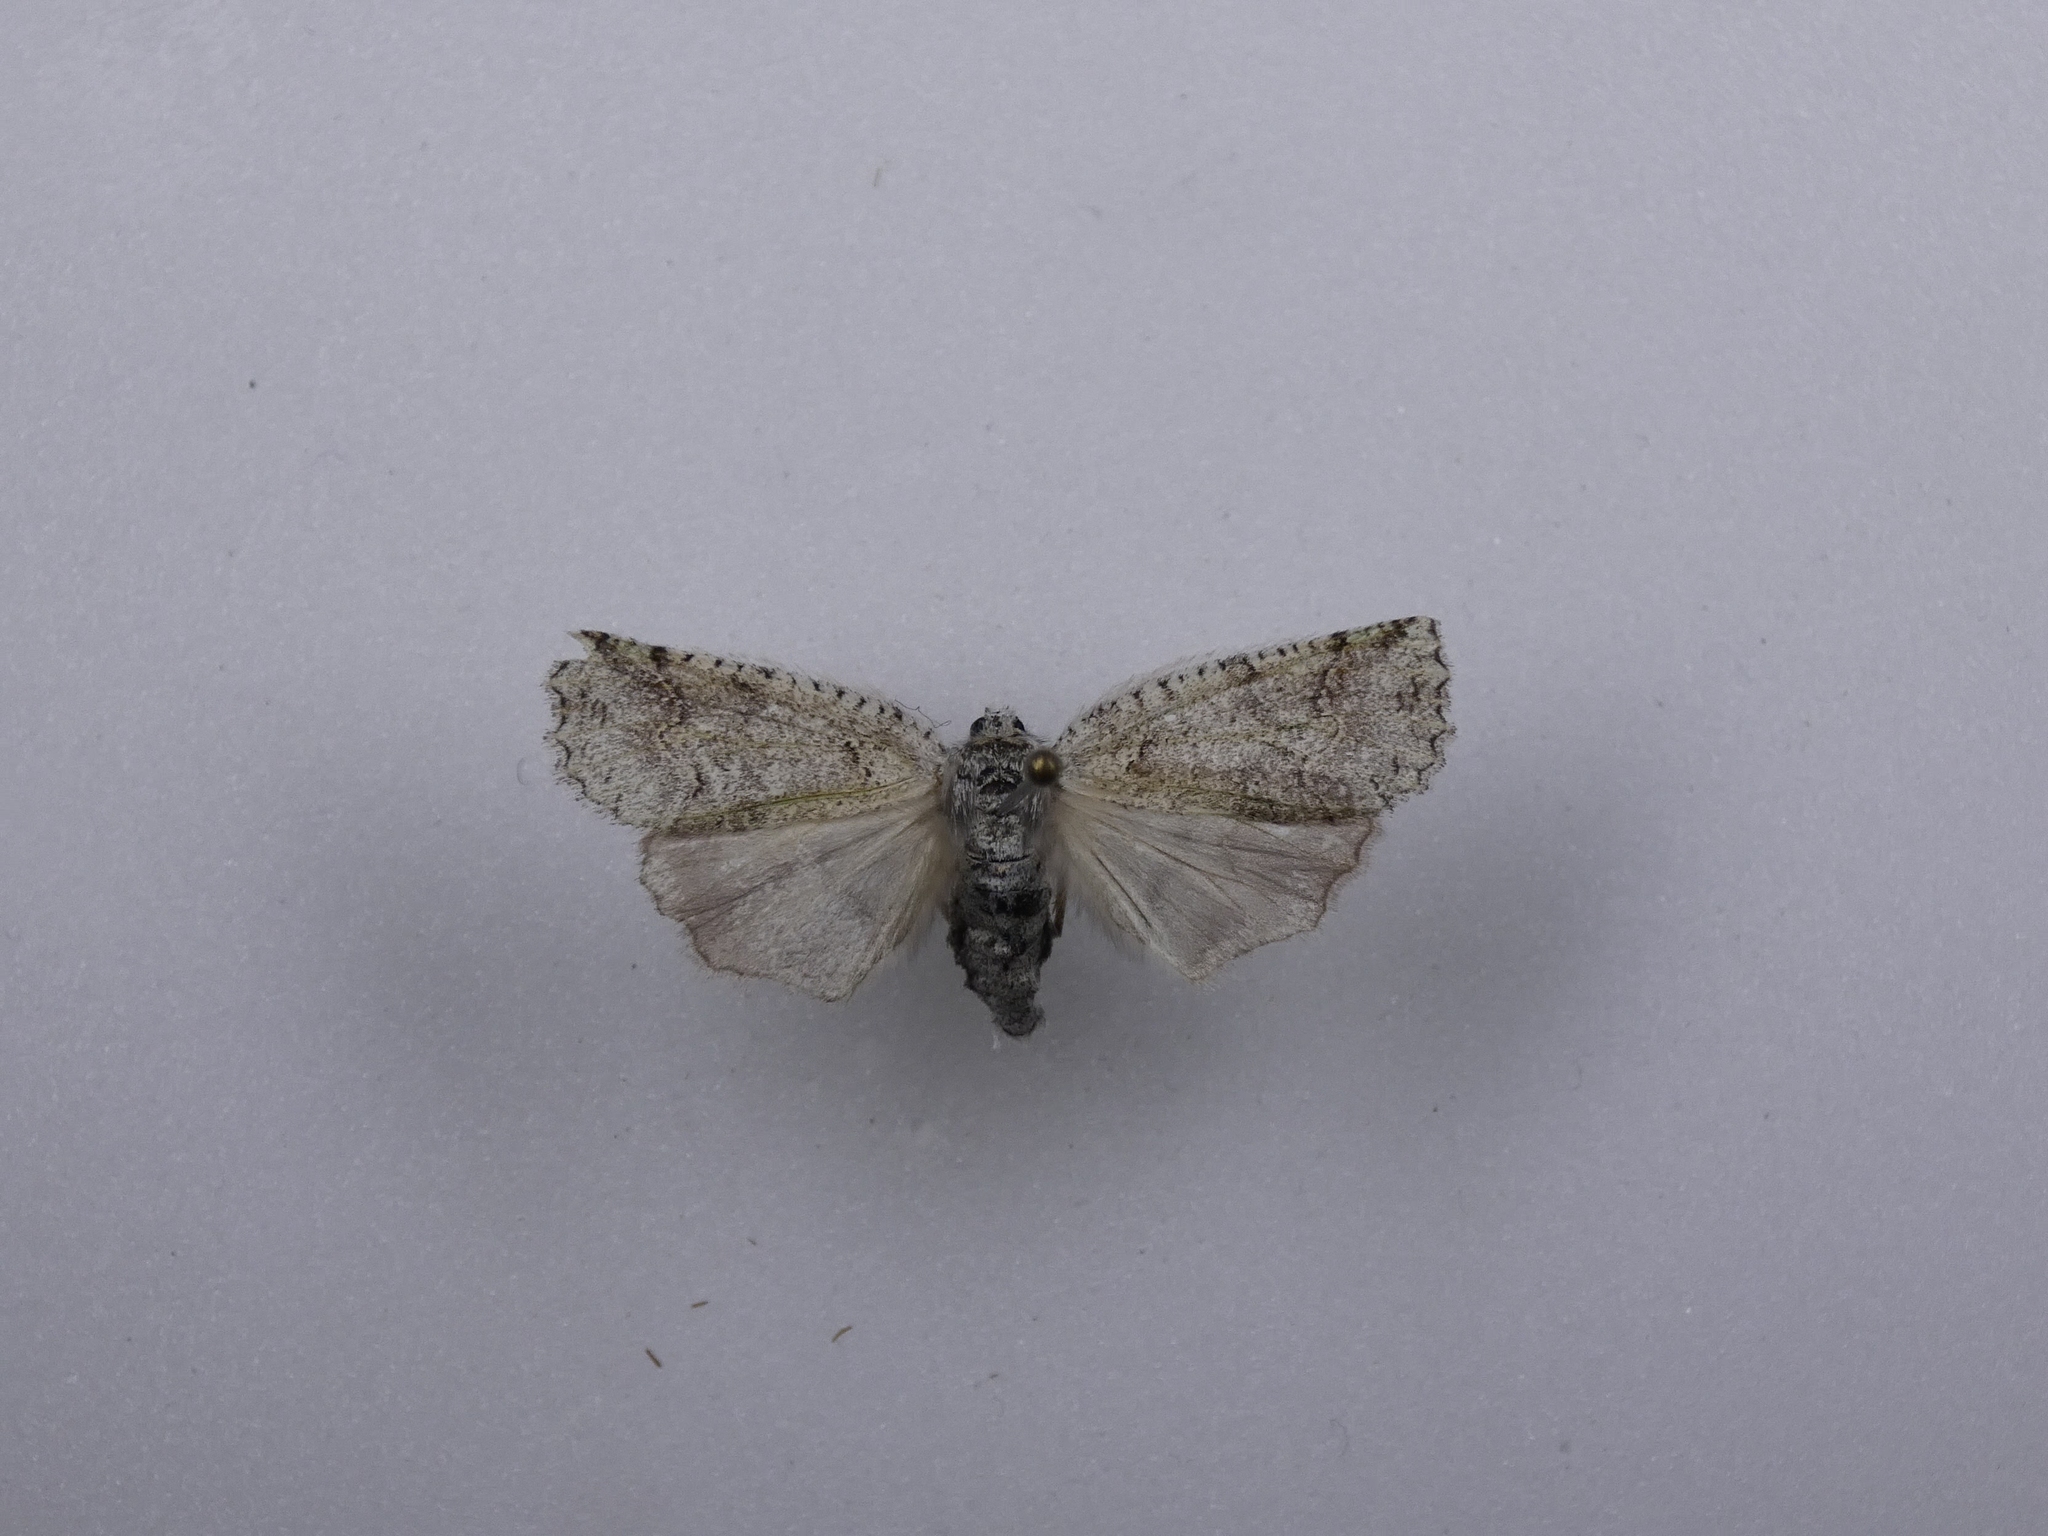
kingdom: Animalia
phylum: Arthropoda
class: Insecta
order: Lepidoptera
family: Geometridae
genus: Declana
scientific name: Declana floccosa
